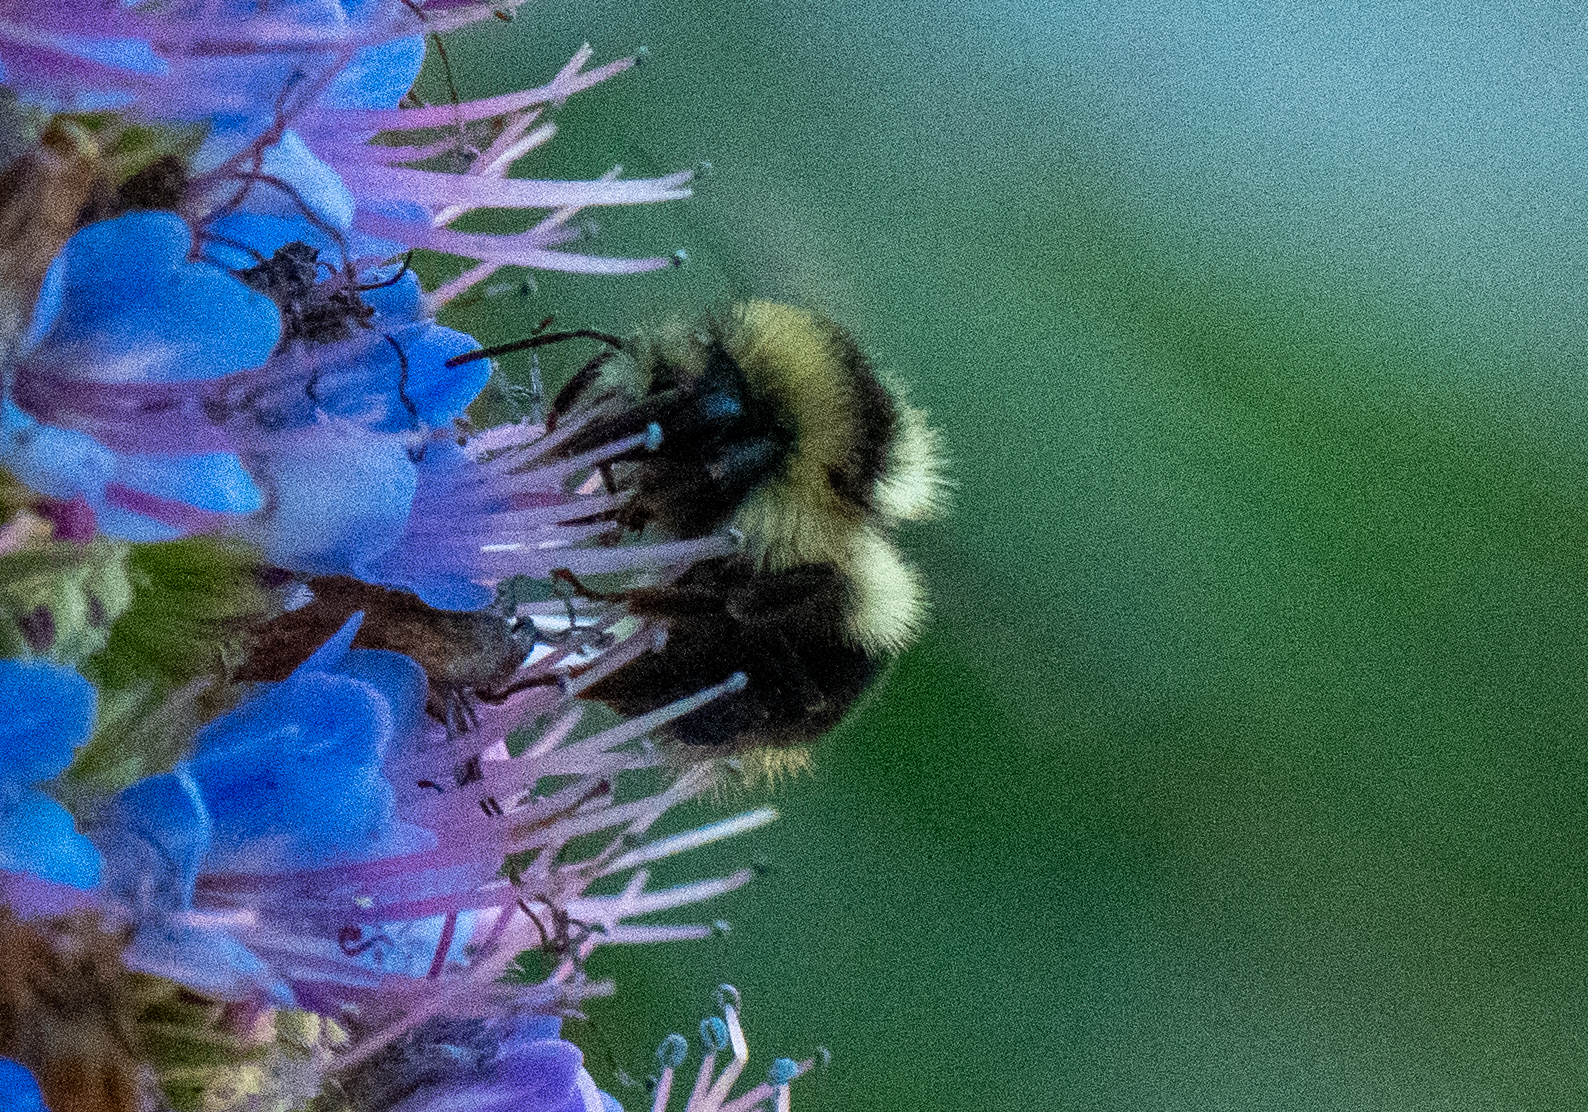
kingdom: Animalia
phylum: Arthropoda
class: Insecta
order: Hymenoptera
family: Apidae
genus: Bombus
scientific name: Bombus melanopygus
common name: Black tail bumble bee
